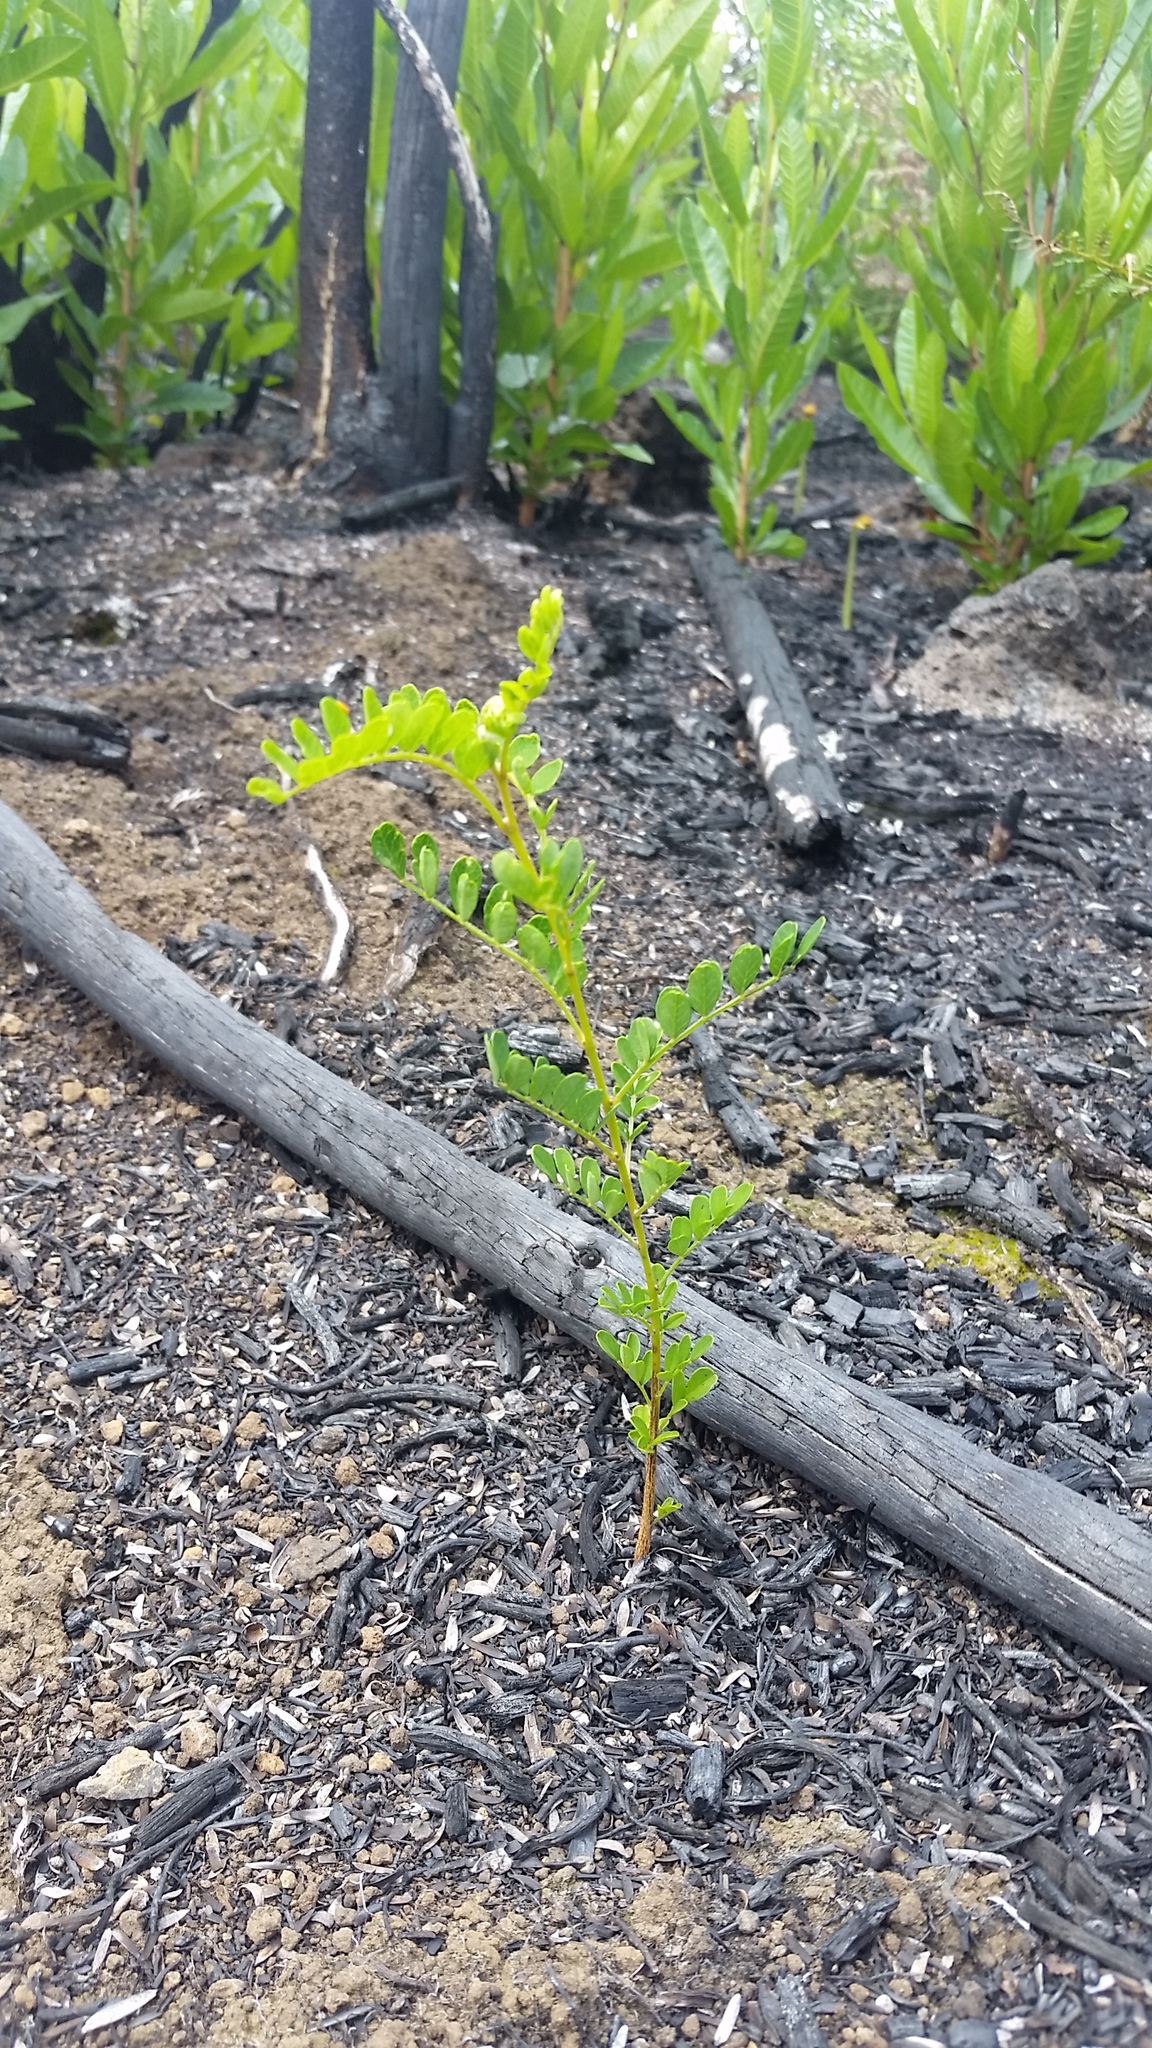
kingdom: Plantae
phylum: Tracheophyta
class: Magnoliopsida
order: Fabales
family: Fabaceae
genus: Sophora
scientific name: Sophora chrysophylla
